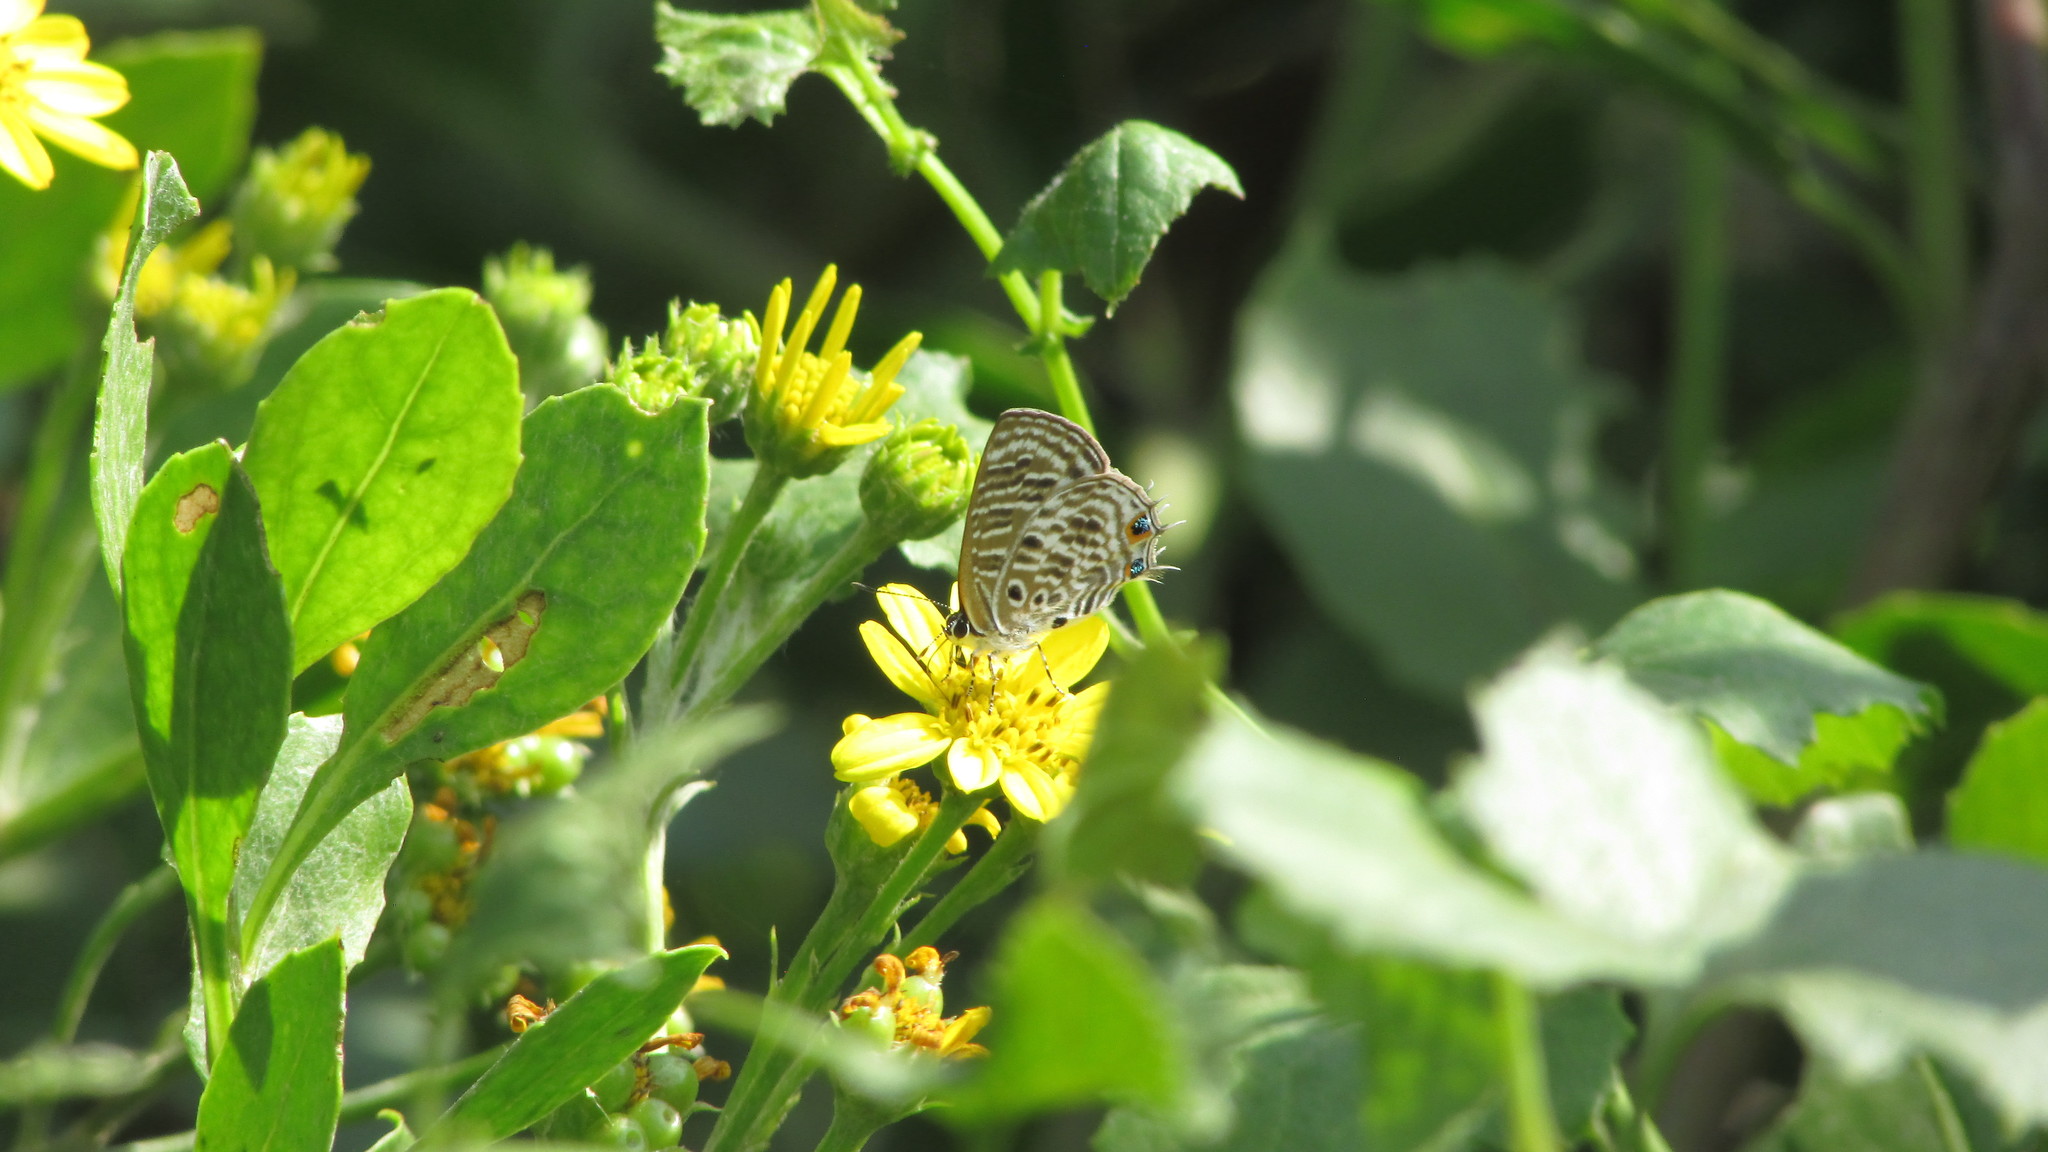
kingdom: Animalia
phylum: Arthropoda
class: Insecta
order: Lepidoptera
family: Lycaenidae
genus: Anthene
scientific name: Anthene larydas
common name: Forest hairtail
